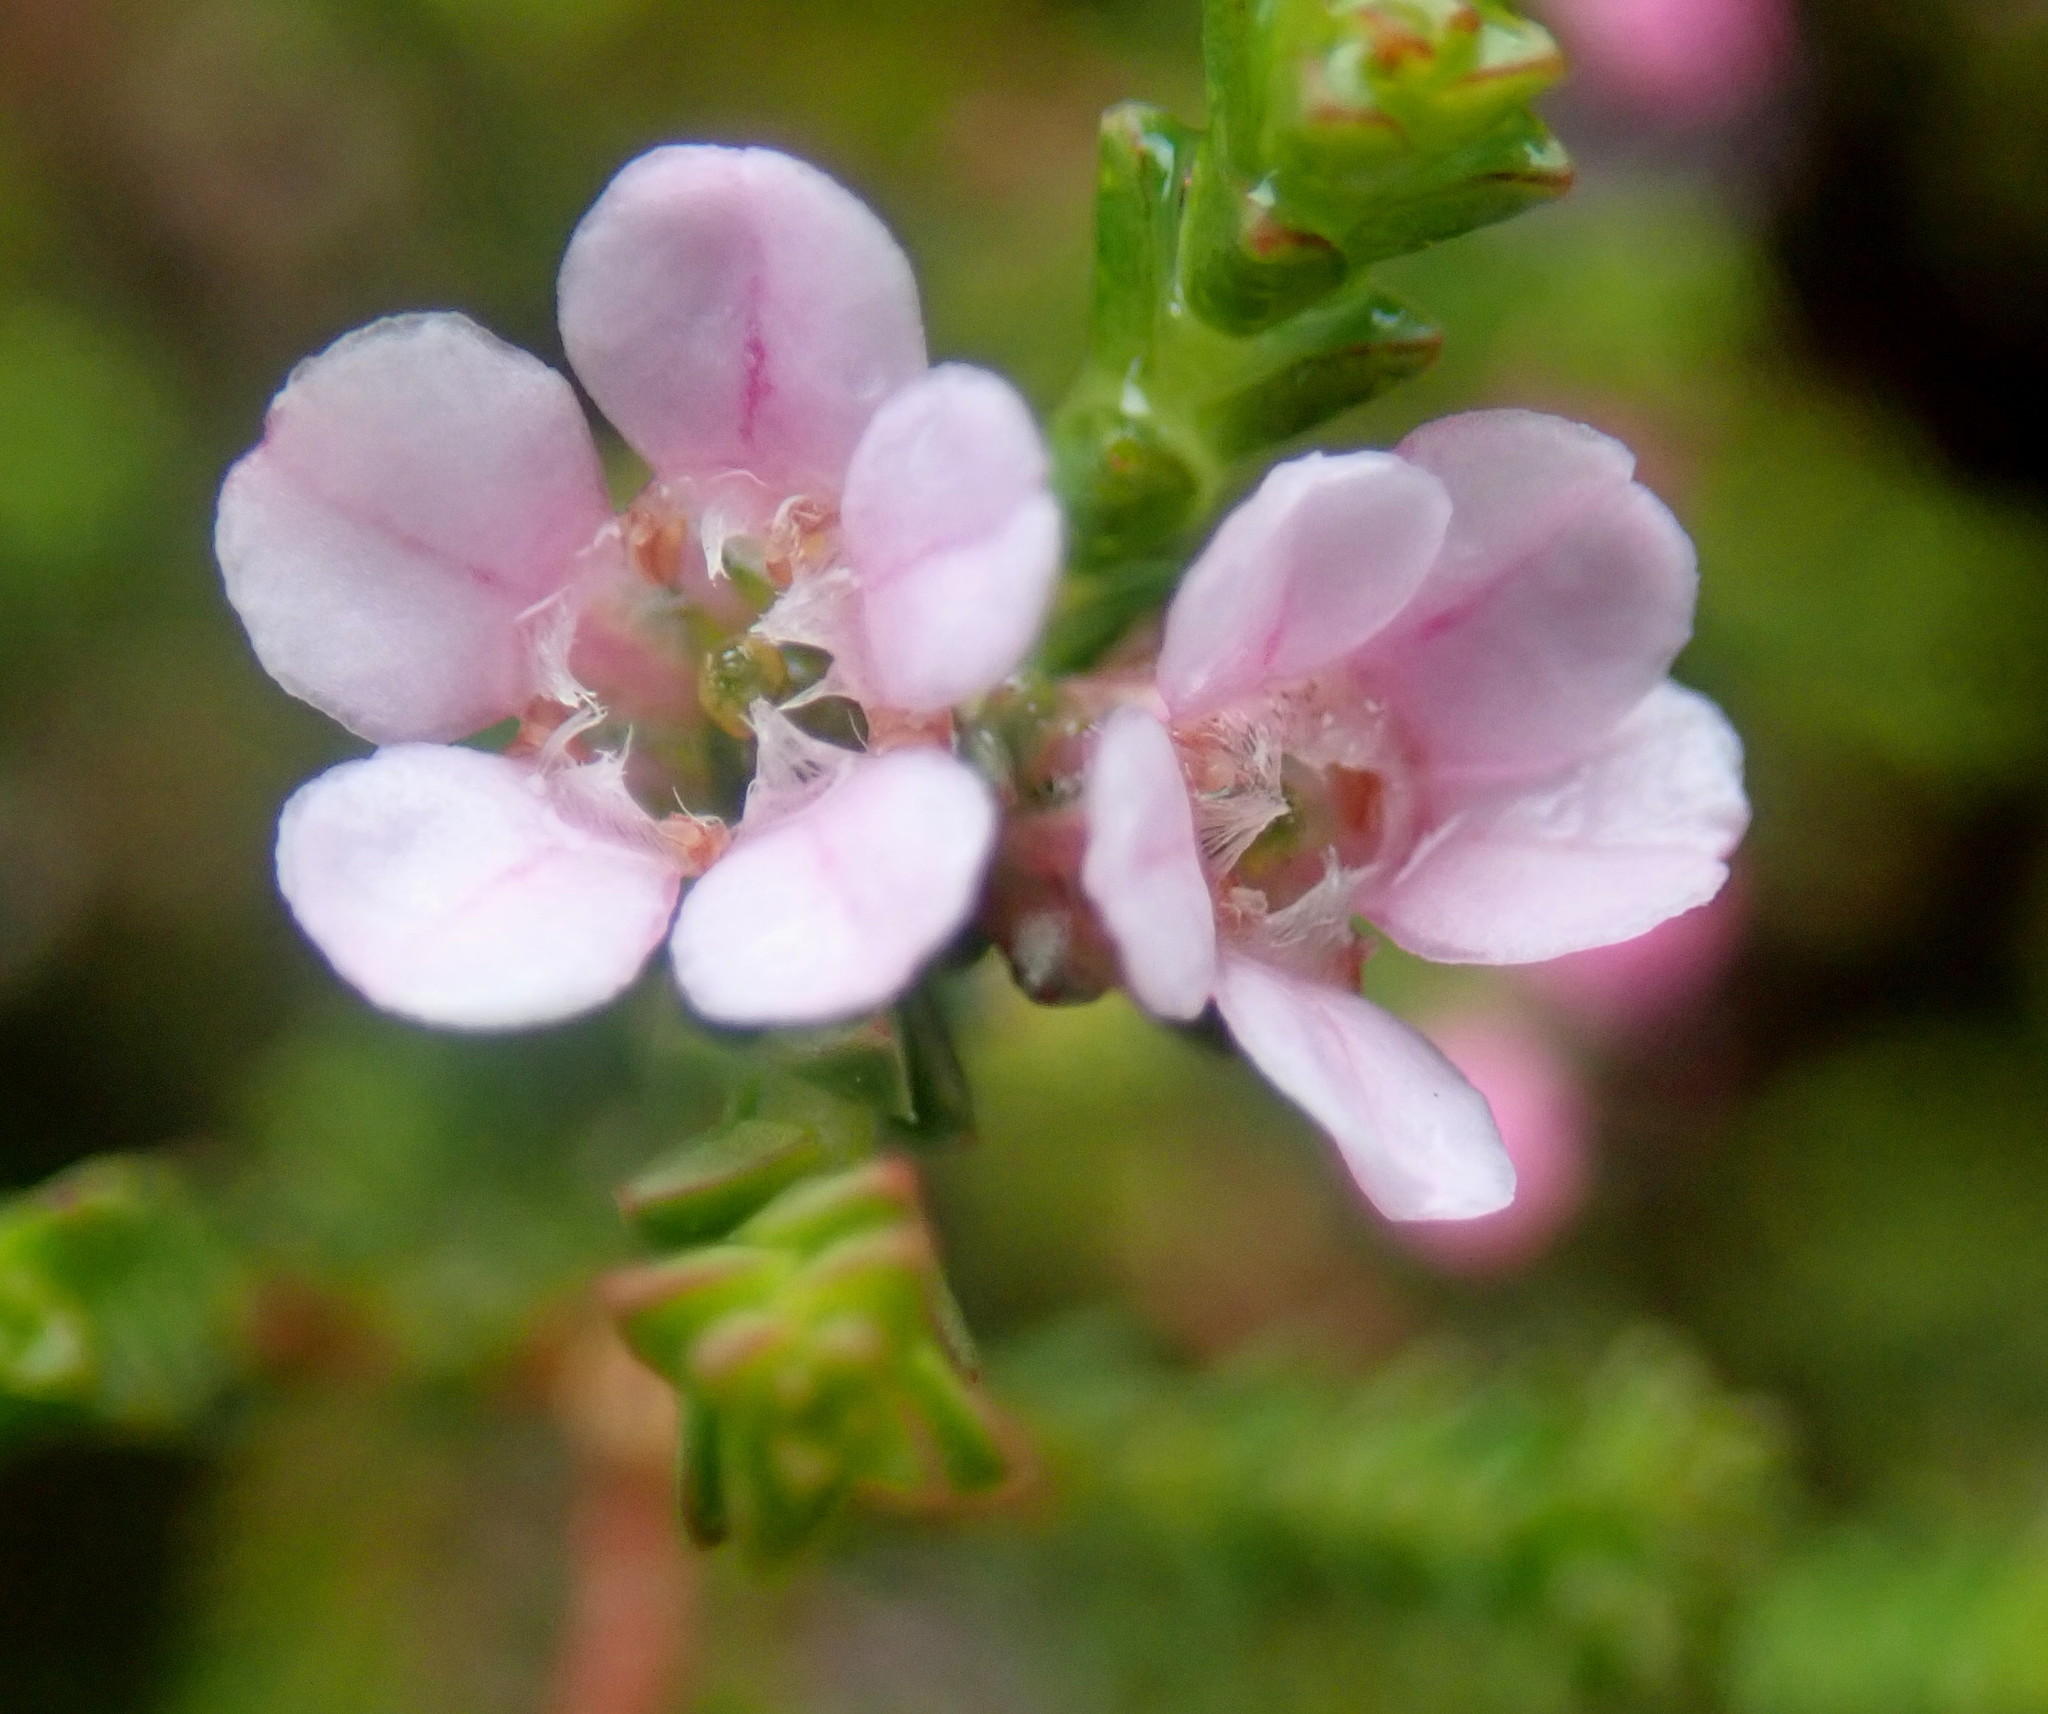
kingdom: Plantae
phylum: Tracheophyta
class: Magnoliopsida
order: Sapindales
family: Rutaceae
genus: Euchaetis
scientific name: Euchaetis albertiniana
